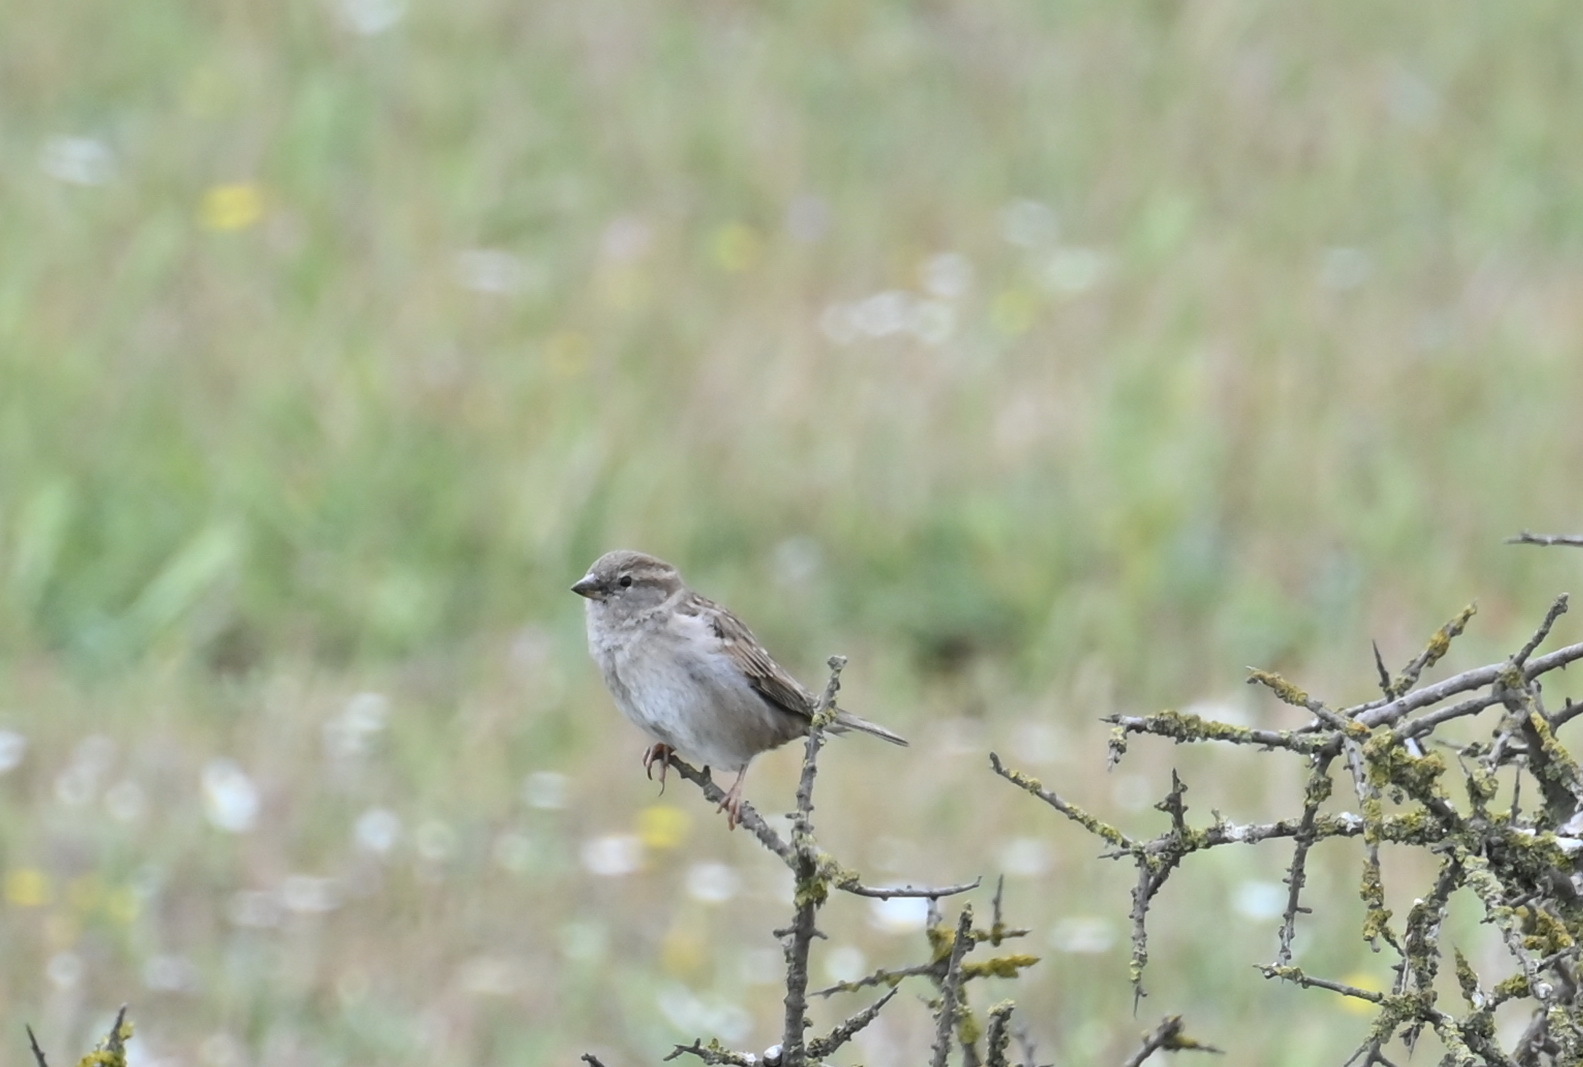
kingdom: Animalia
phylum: Chordata
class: Aves
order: Passeriformes
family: Passeridae
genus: Passer
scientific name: Passer domesticus
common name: House sparrow
